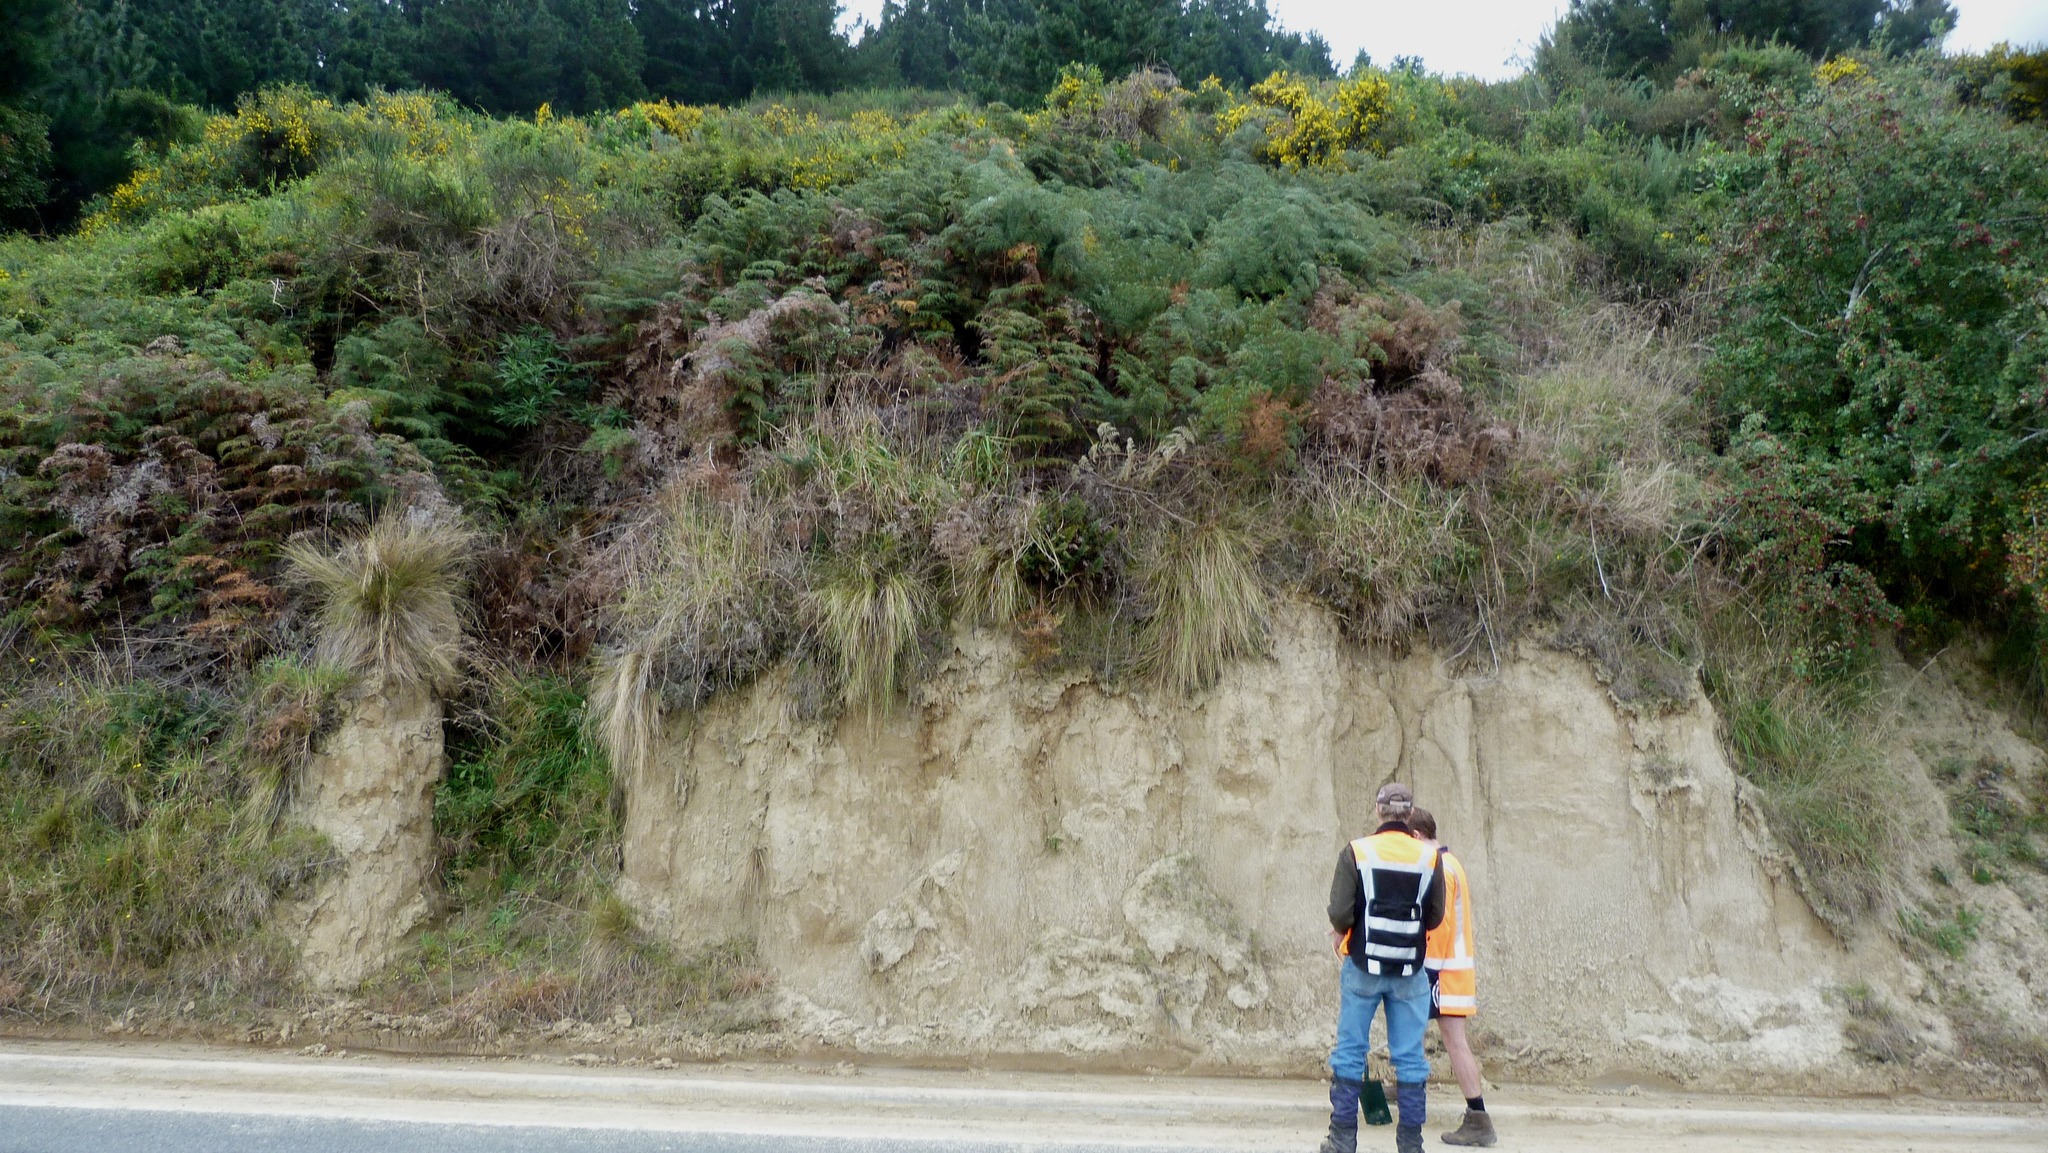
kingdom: Plantae
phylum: Tracheophyta
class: Liliopsida
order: Poales
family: Poaceae
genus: Poa
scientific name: Poa cita
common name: Silver tussock
